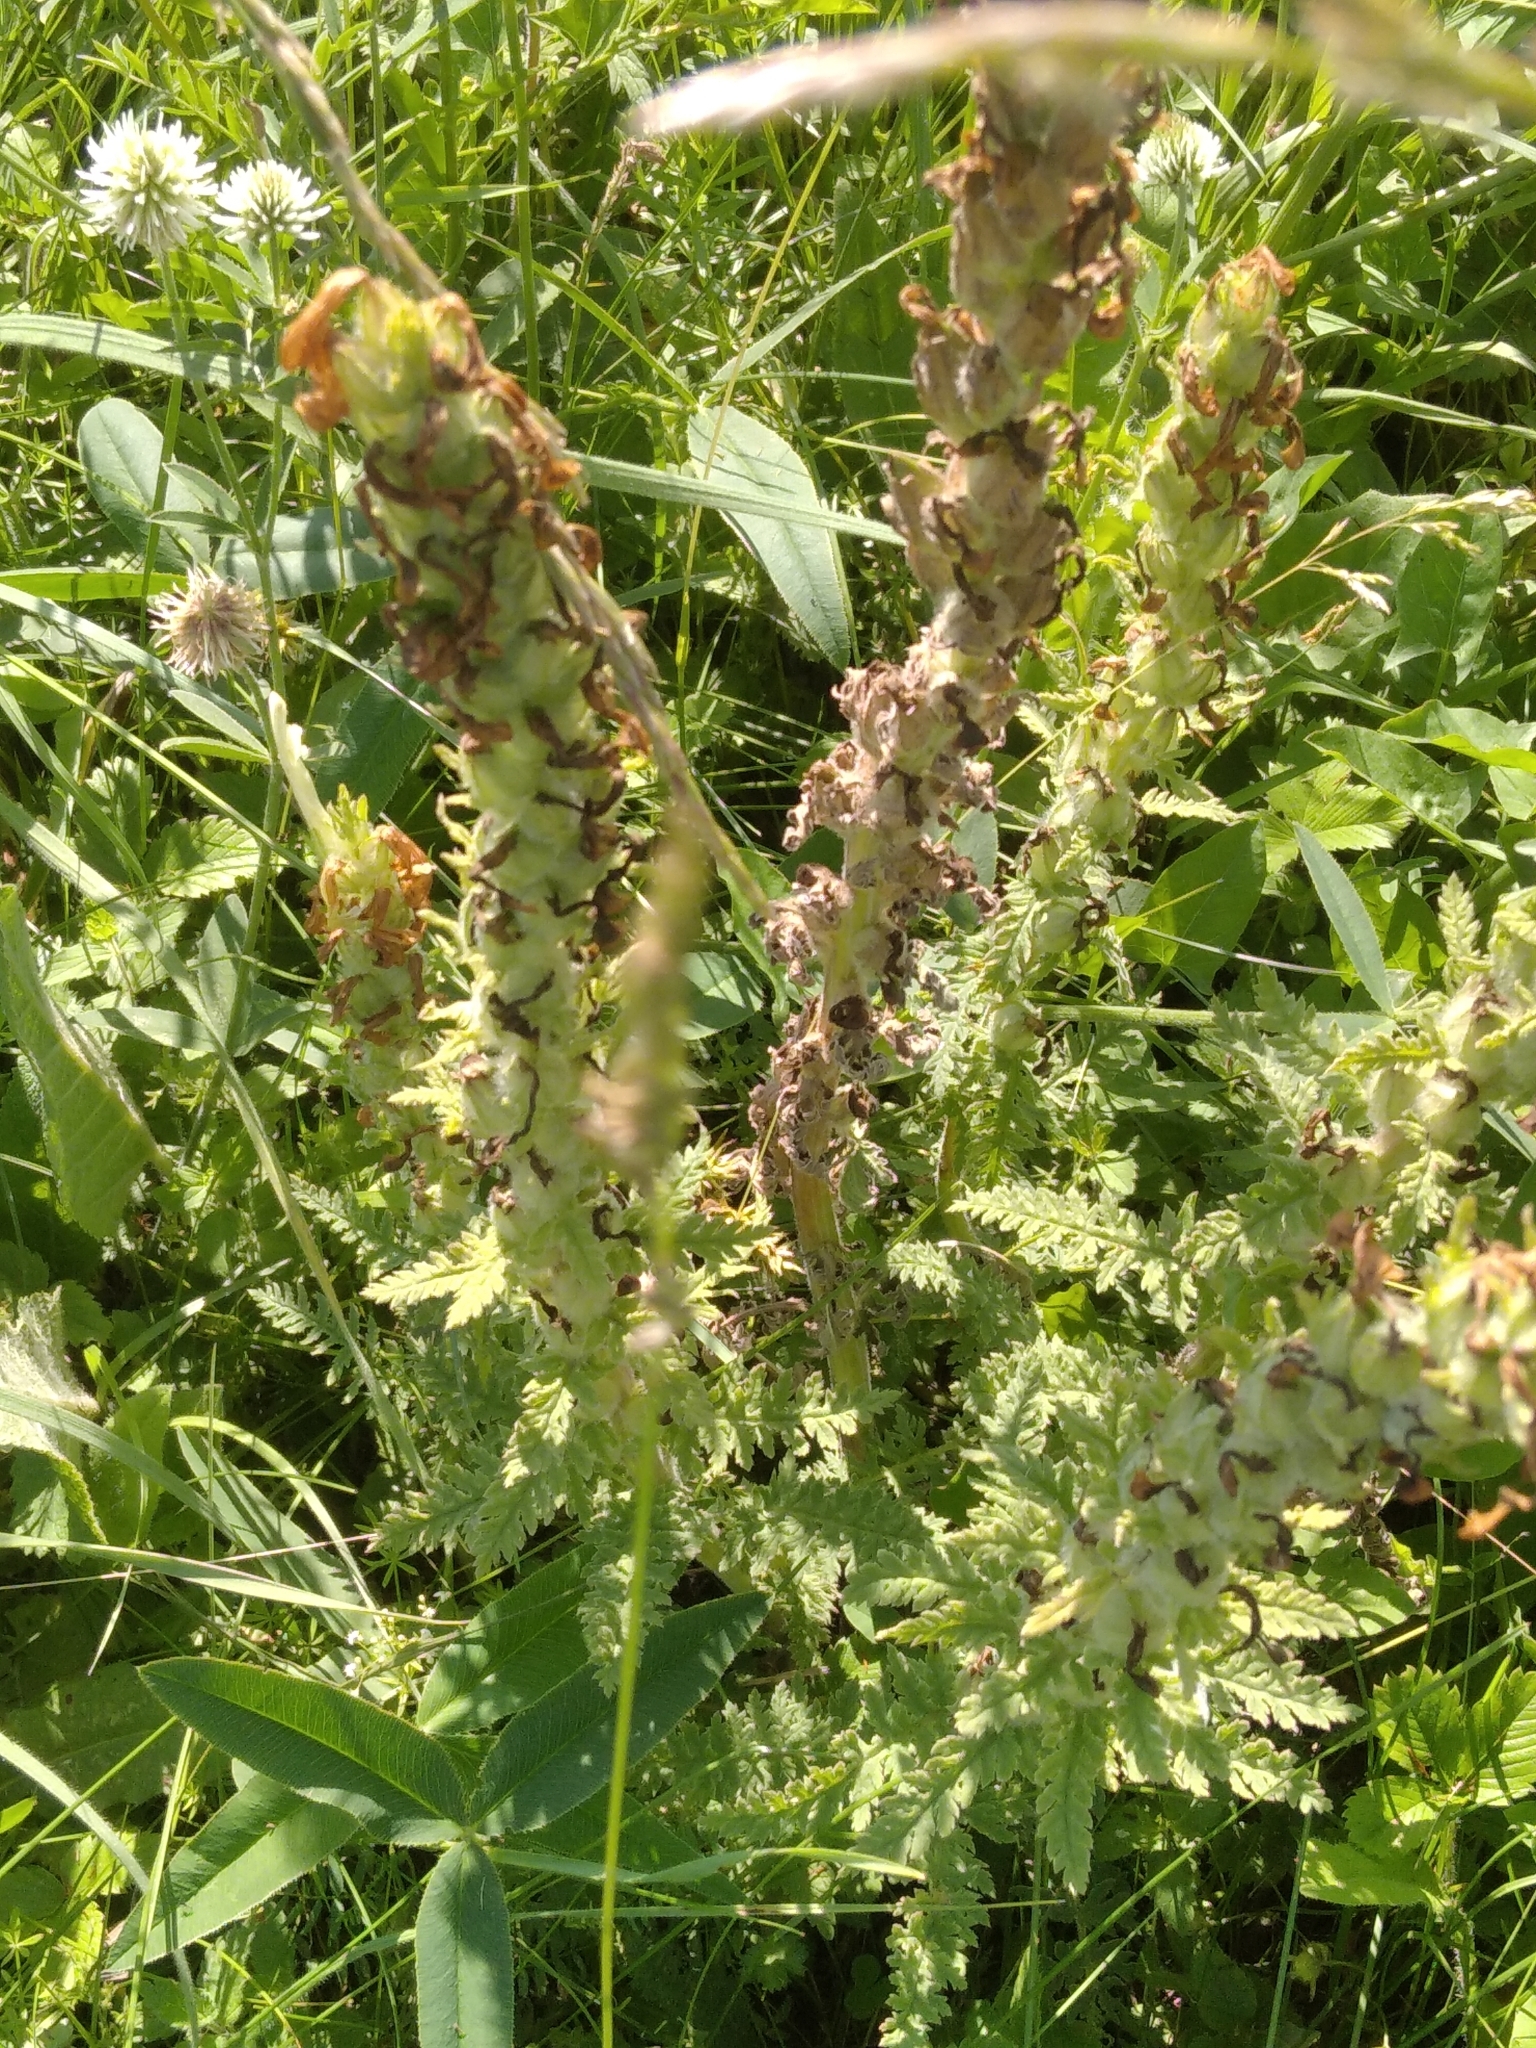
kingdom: Plantae
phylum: Tracheophyta
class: Magnoliopsida
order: Lamiales
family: Orobanchaceae
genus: Pedicularis
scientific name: Pedicularis kaufmannii
